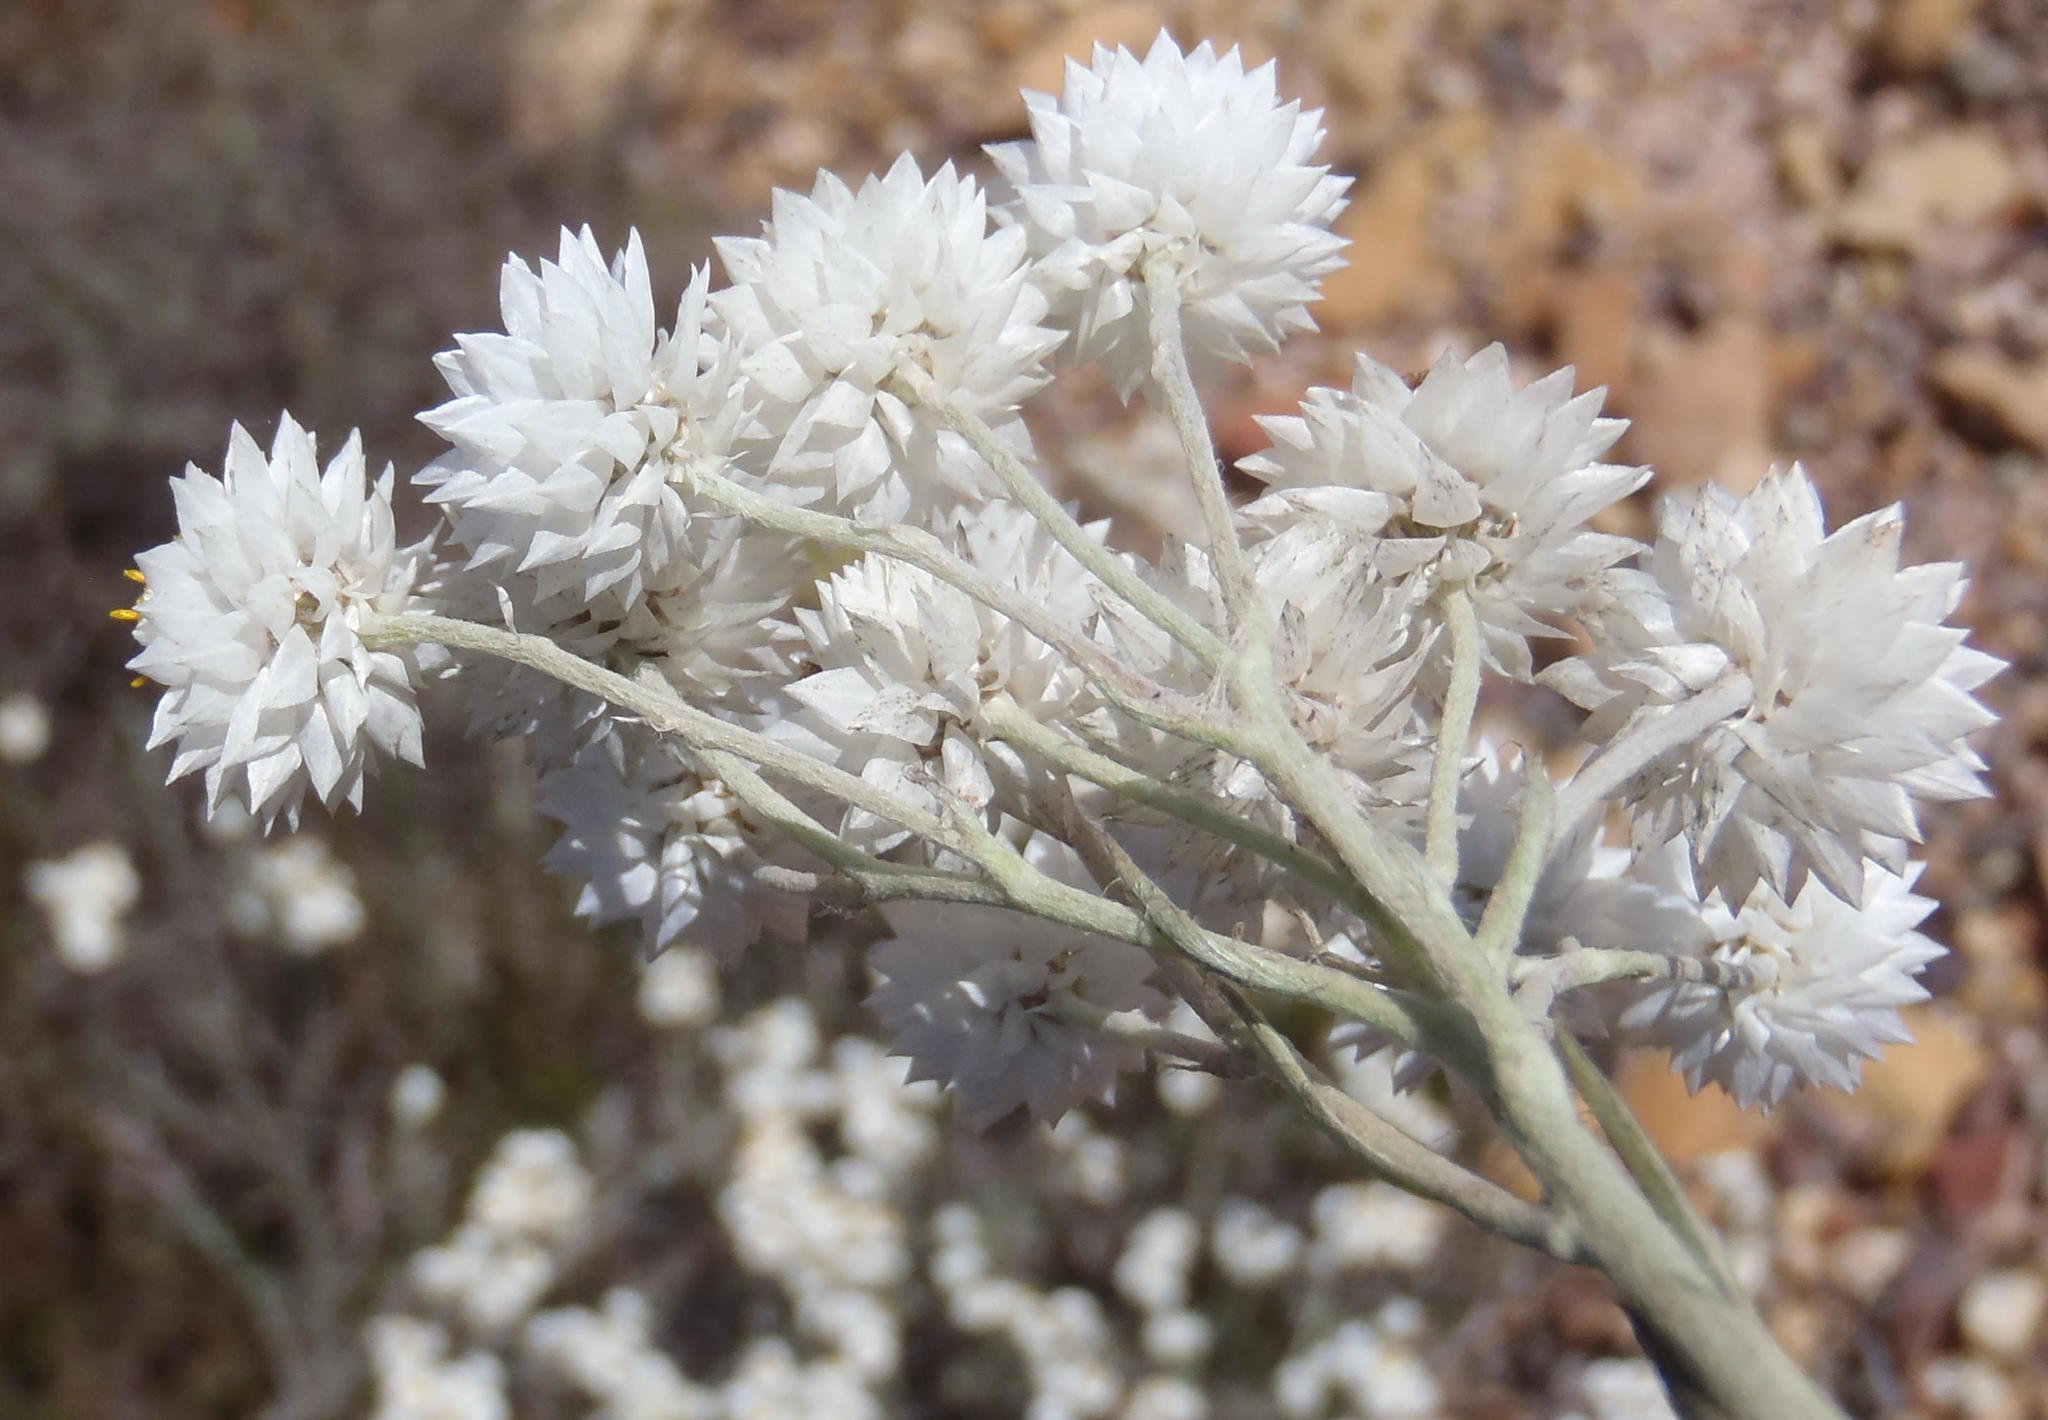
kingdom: Plantae
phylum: Tracheophyta
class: Magnoliopsida
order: Asterales
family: Asteraceae
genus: Achyranthemum
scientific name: Achyranthemum paniculatum
